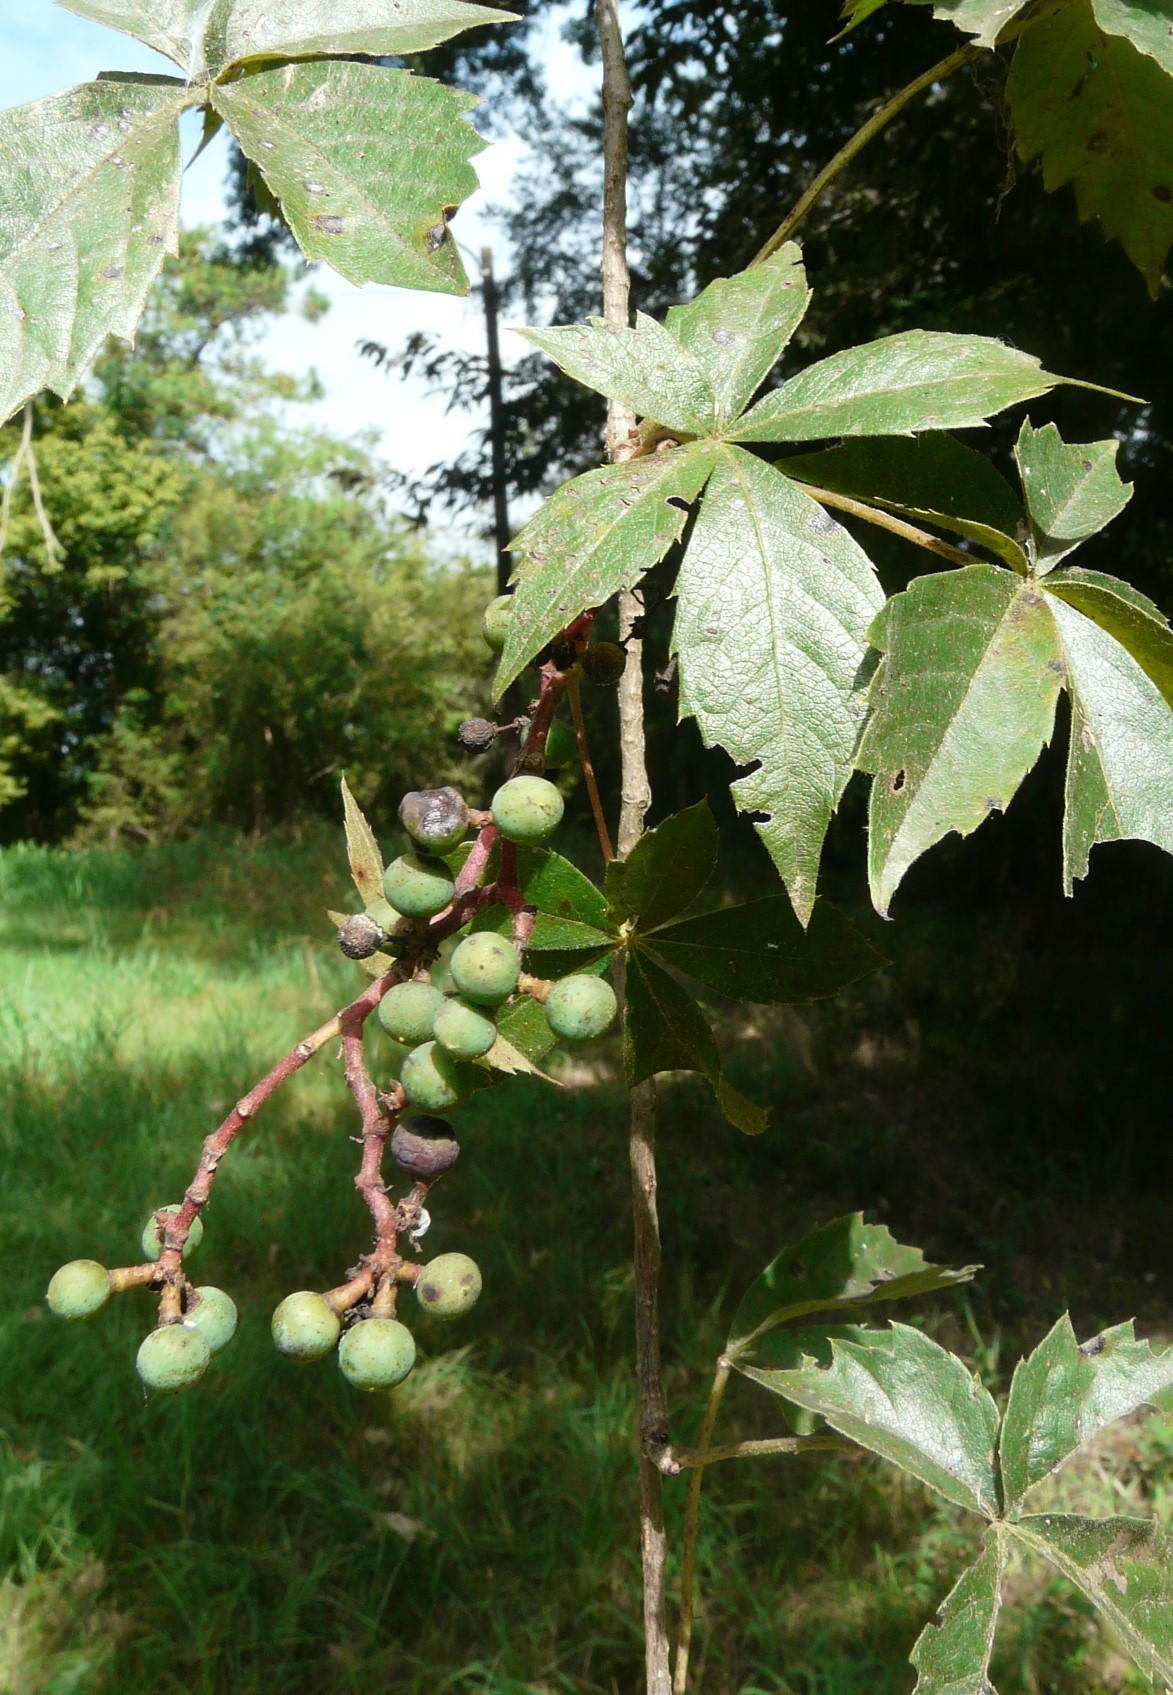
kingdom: Plantae
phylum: Tracheophyta
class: Magnoliopsida
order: Vitales
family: Vitaceae
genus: Parthenocissus
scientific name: Parthenocissus quinquefolia
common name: Virginia-creeper
